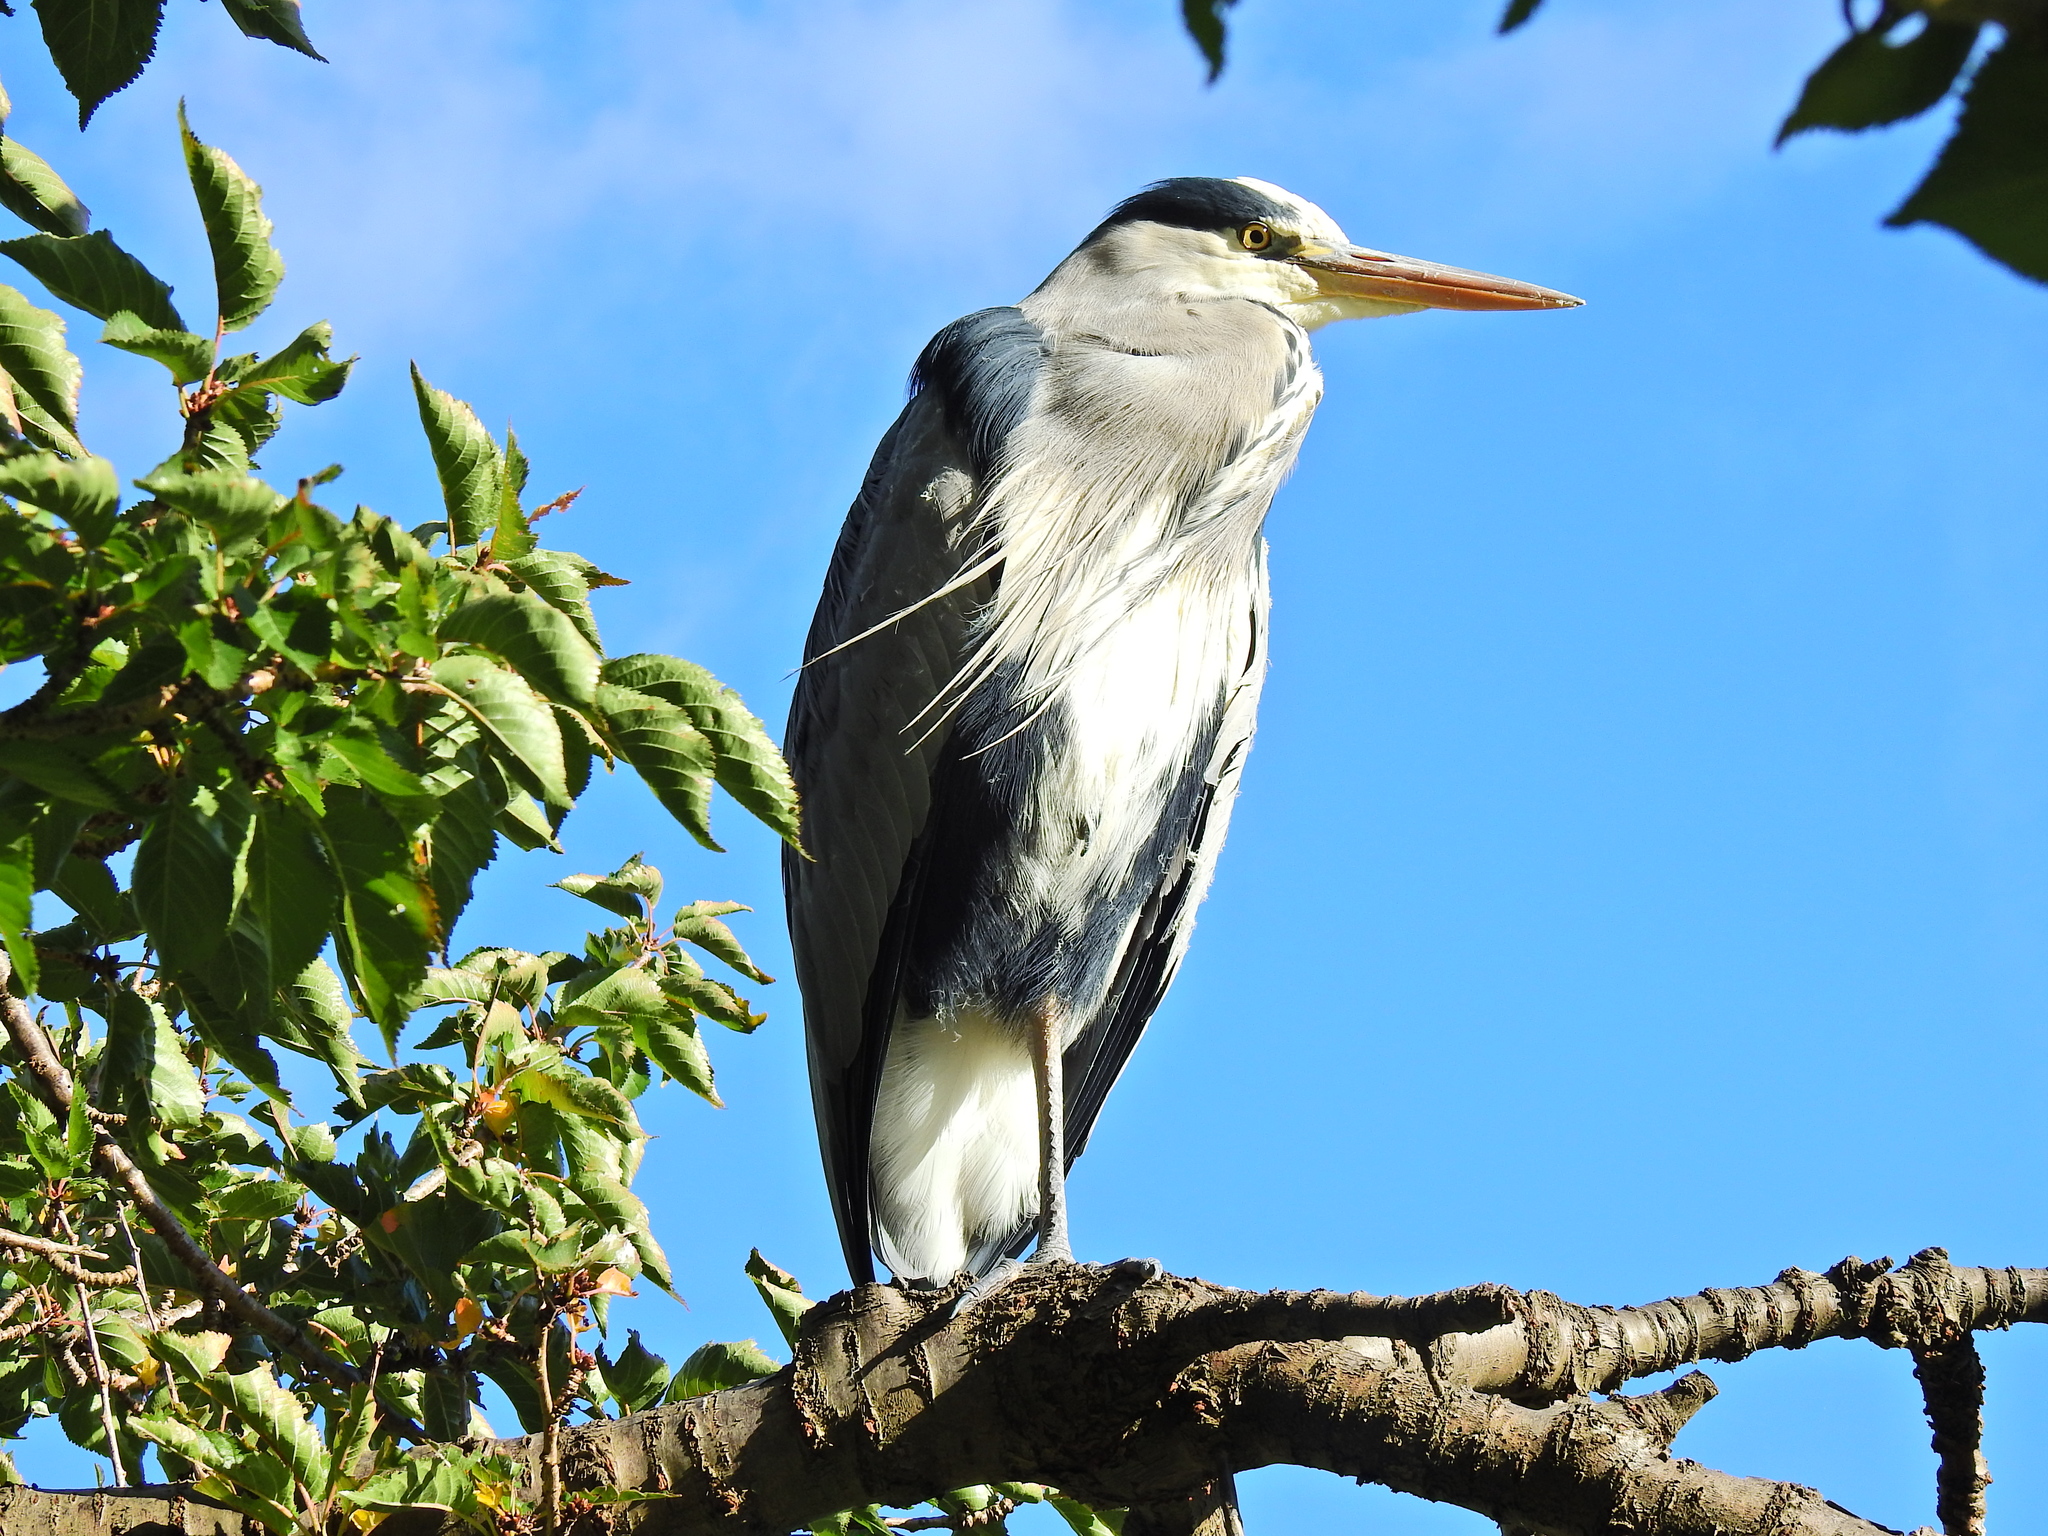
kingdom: Animalia
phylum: Chordata
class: Aves
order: Pelecaniformes
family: Ardeidae
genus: Ardea
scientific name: Ardea cinerea
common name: Grey heron
